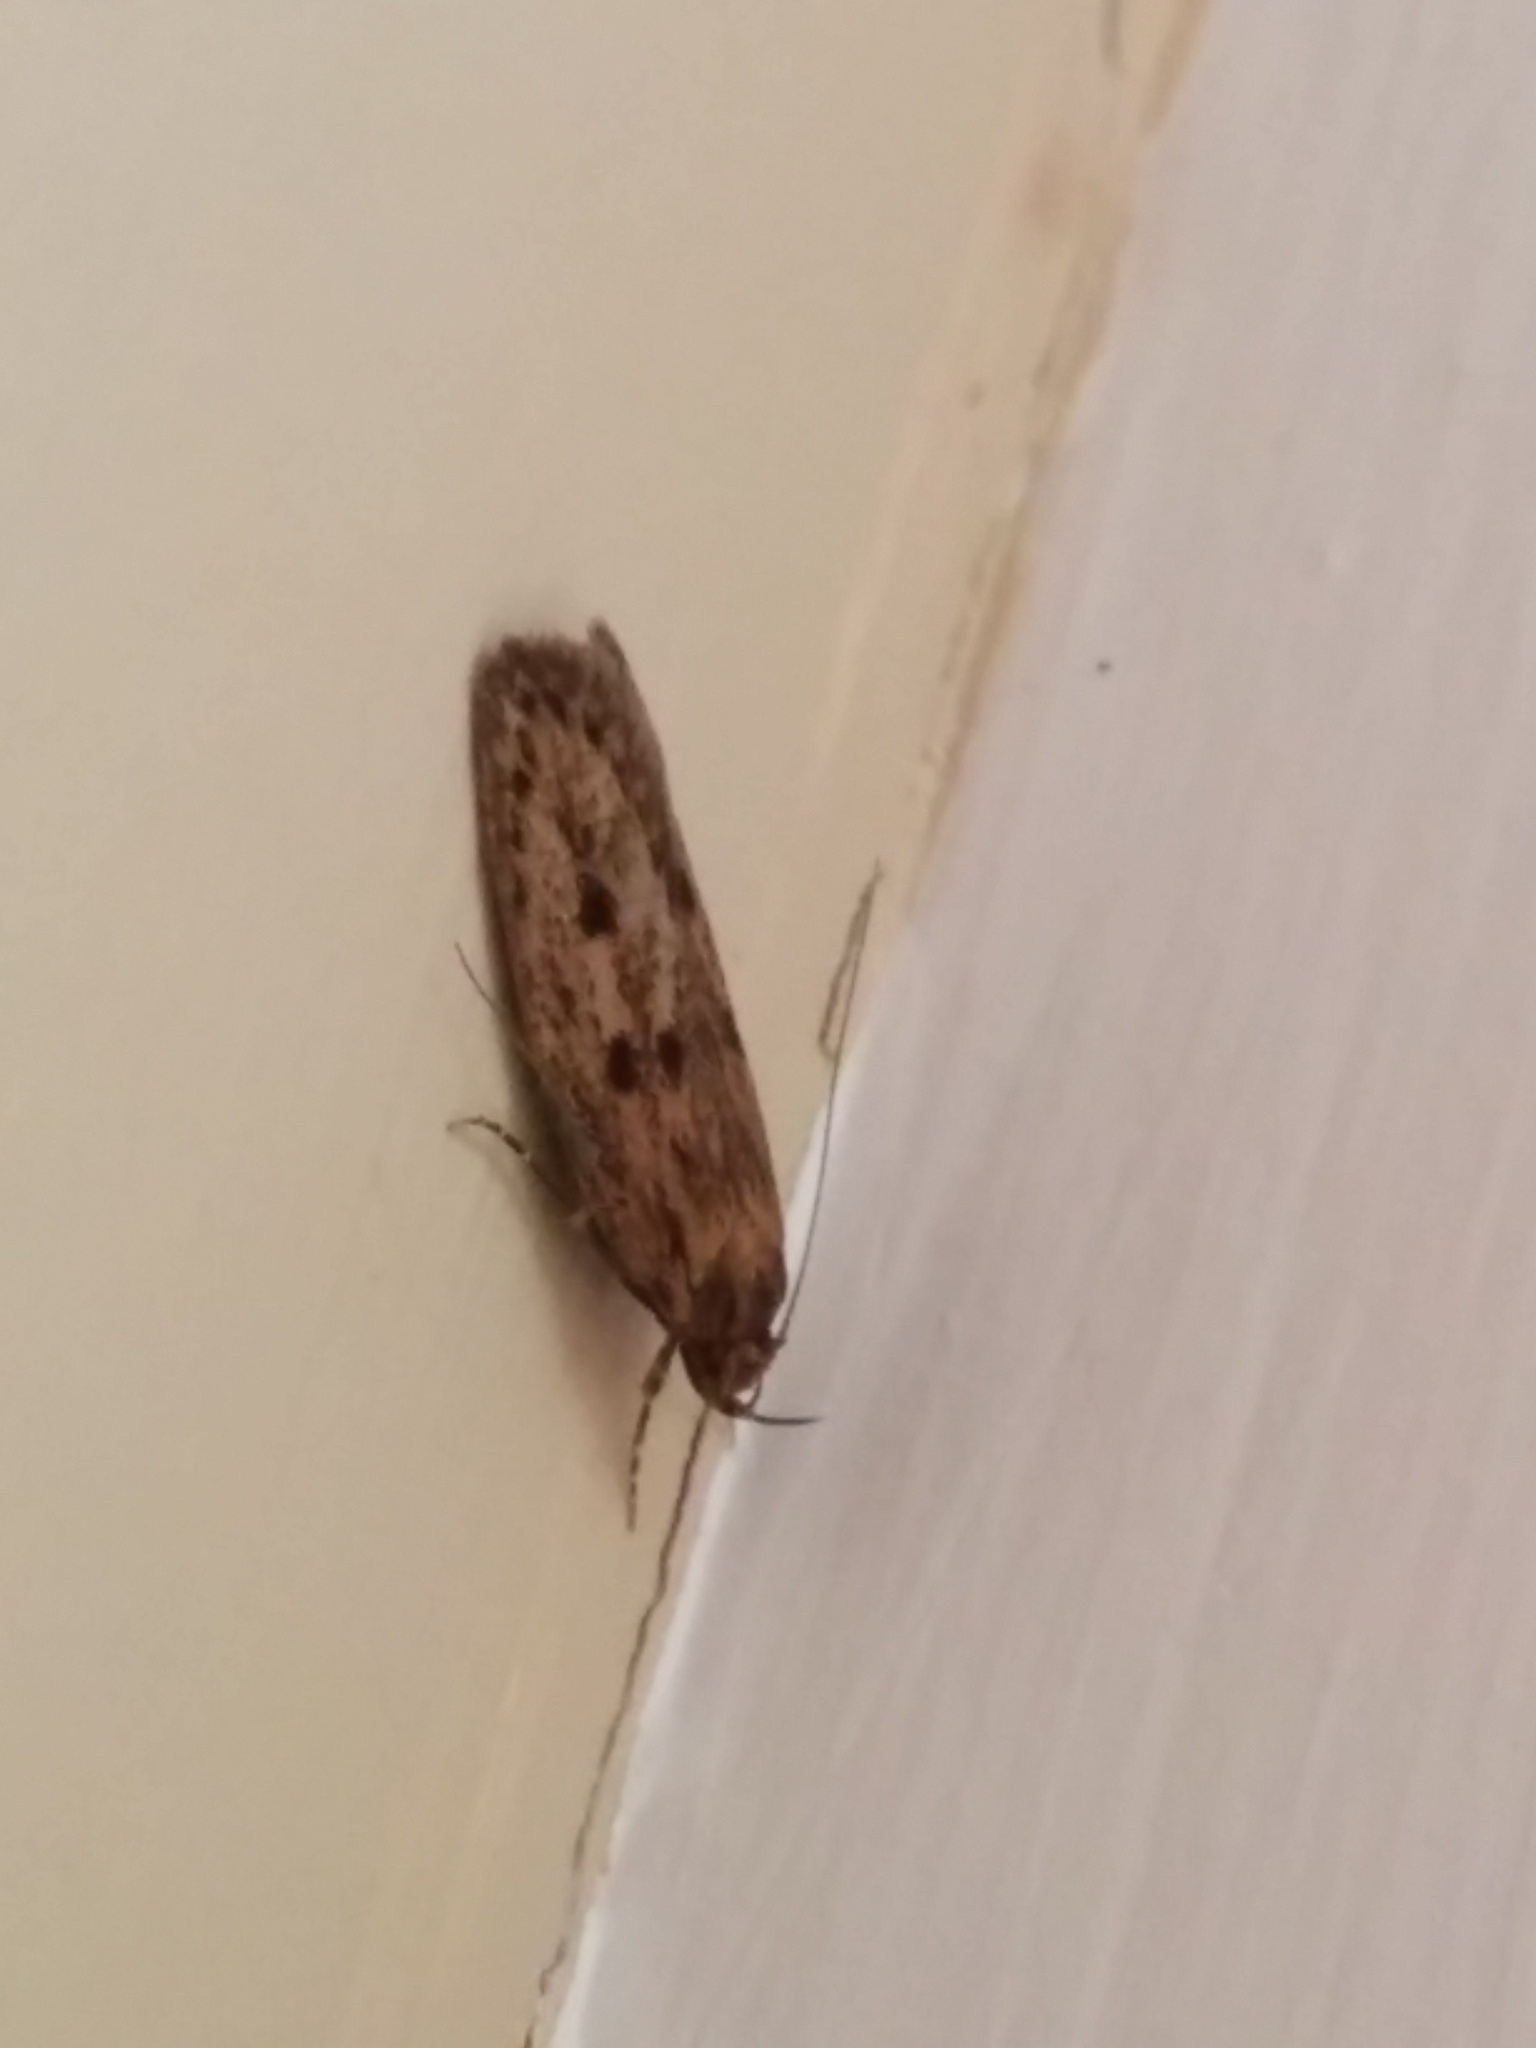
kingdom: Animalia
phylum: Arthropoda
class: Insecta
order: Lepidoptera
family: Oecophoridae
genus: Hofmannophila
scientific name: Hofmannophila pseudospretella
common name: Brown house moth
